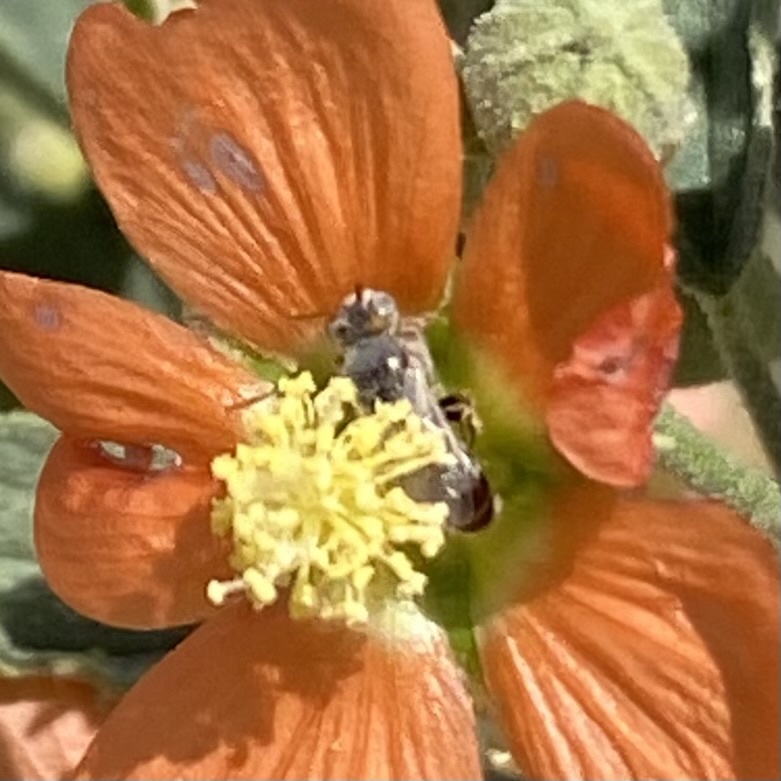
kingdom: Animalia
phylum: Arthropoda
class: Insecta
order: Hymenoptera
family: Andrenidae
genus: Macrotera
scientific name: Macrotera magniceps
